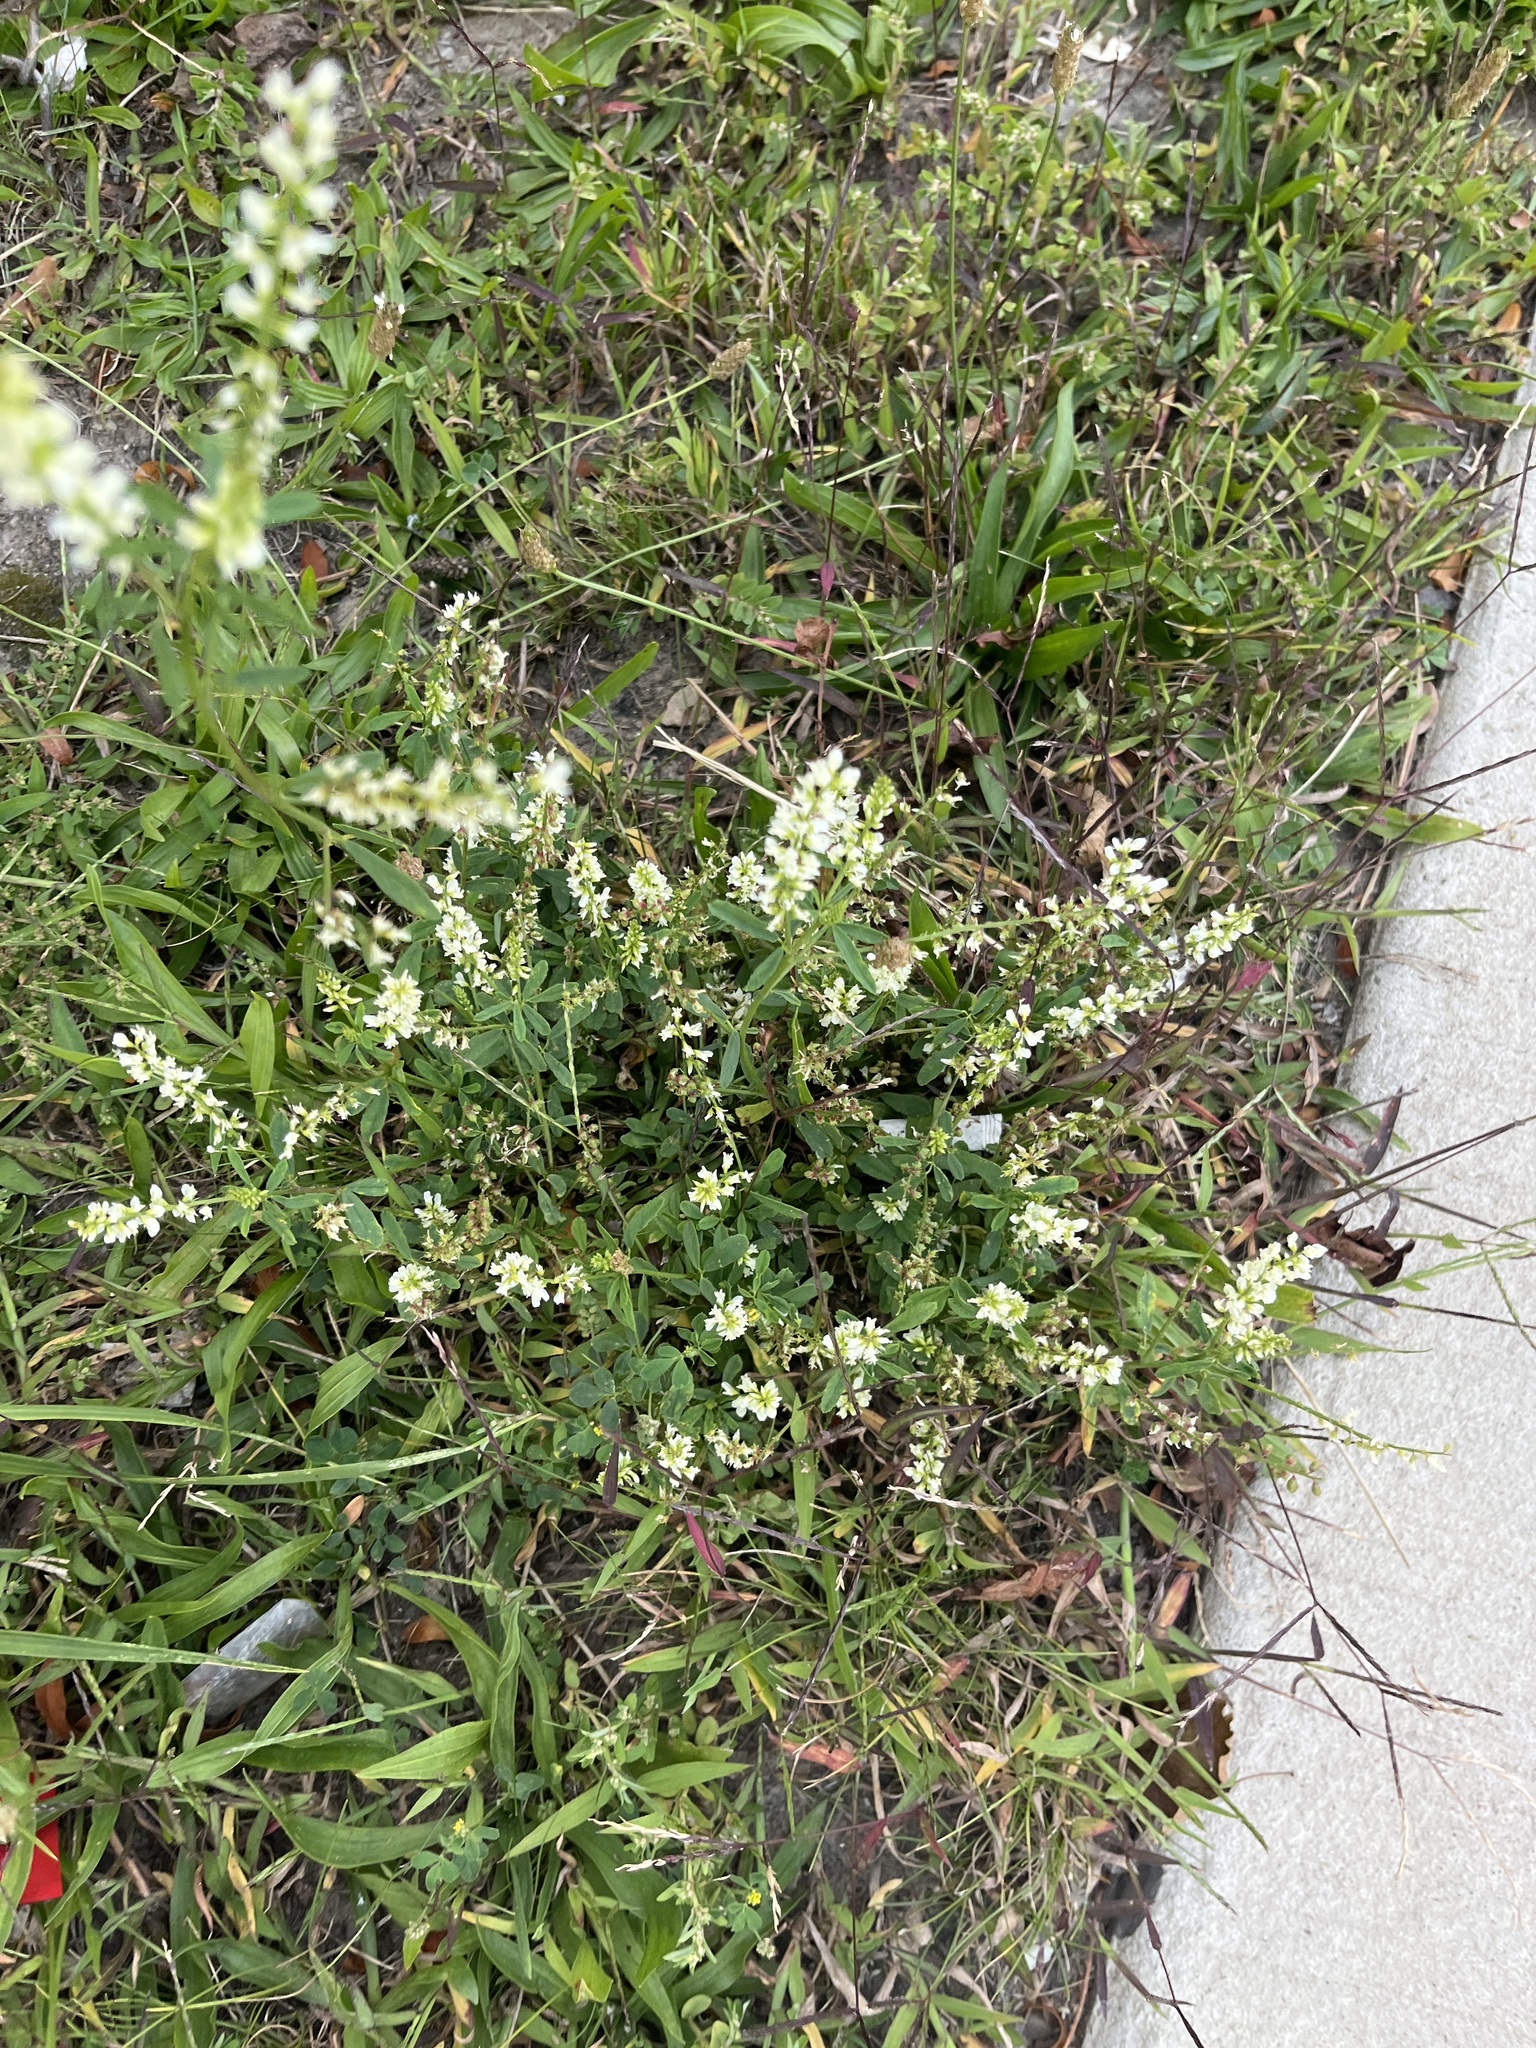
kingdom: Plantae
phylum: Tracheophyta
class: Magnoliopsida
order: Fabales
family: Fabaceae
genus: Melilotus
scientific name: Melilotus albus
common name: White melilot
